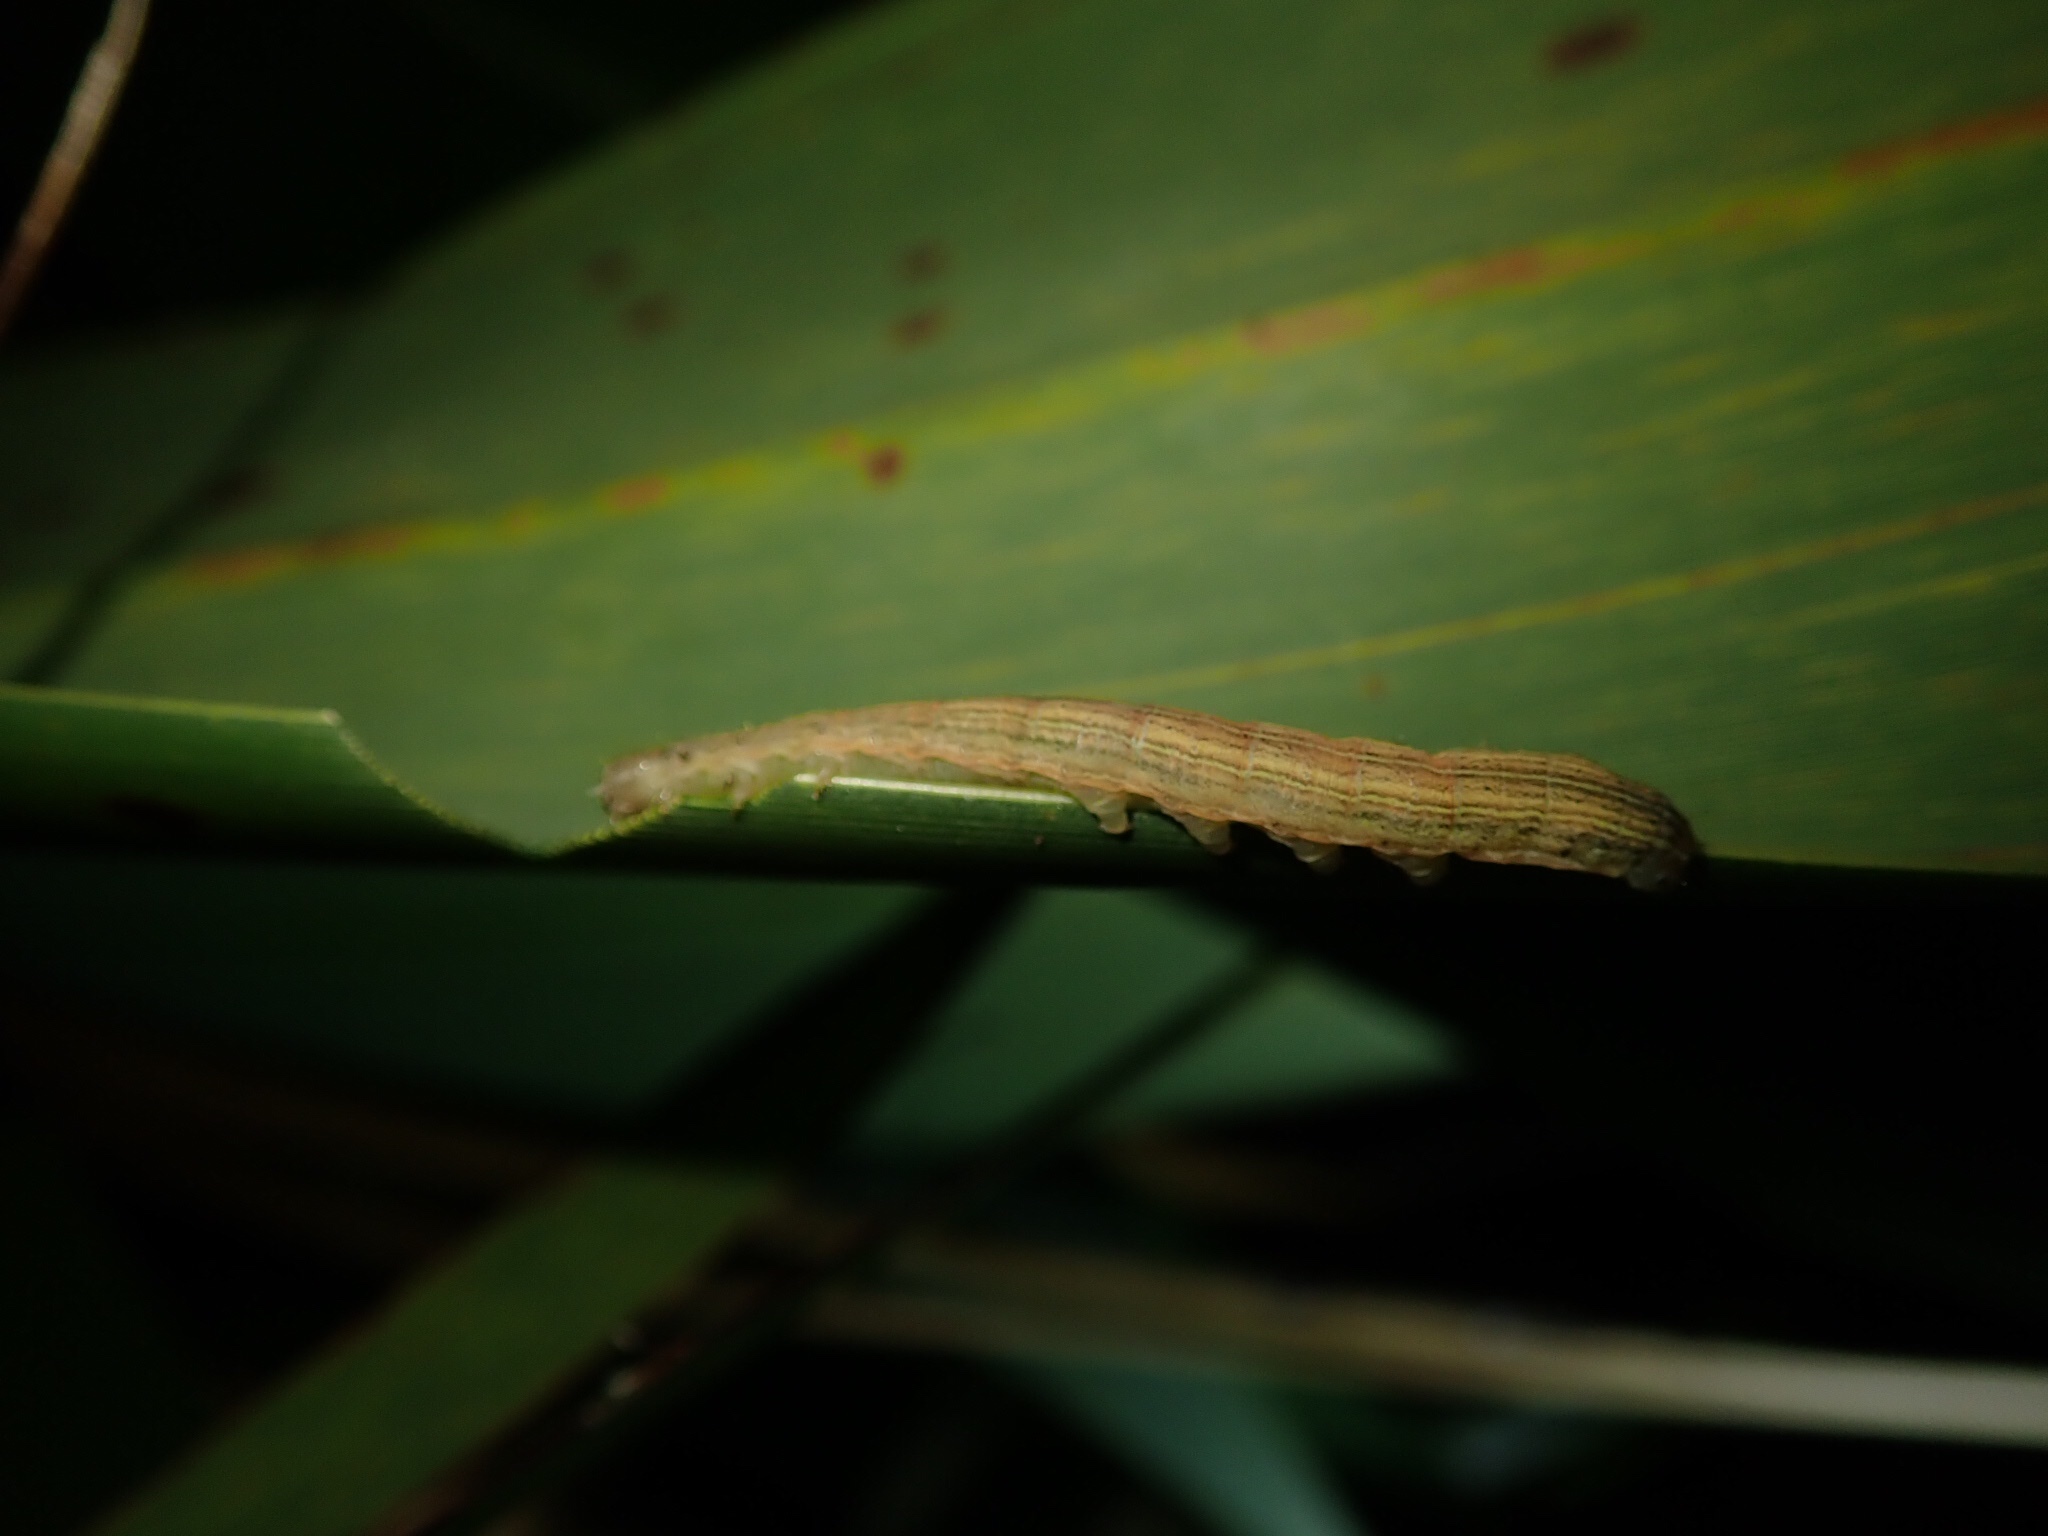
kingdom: Animalia
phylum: Arthropoda
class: Insecta
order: Lepidoptera
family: Noctuidae
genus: Ichneutica
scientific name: Ichneutica
